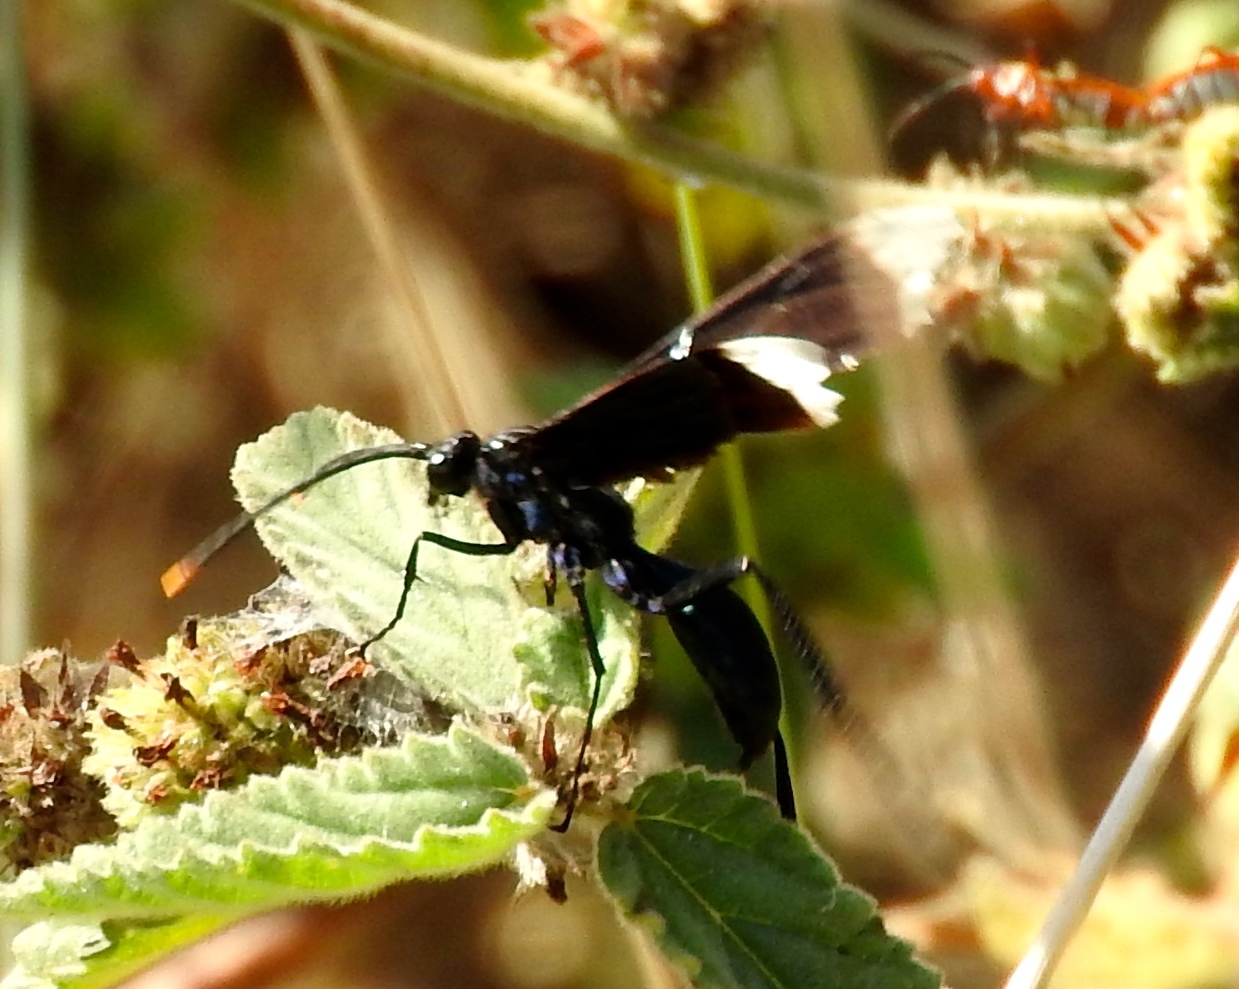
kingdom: Animalia
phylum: Arthropoda
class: Insecta
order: Hymenoptera
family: Pompilidae
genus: Pepsis
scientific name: Pepsis
